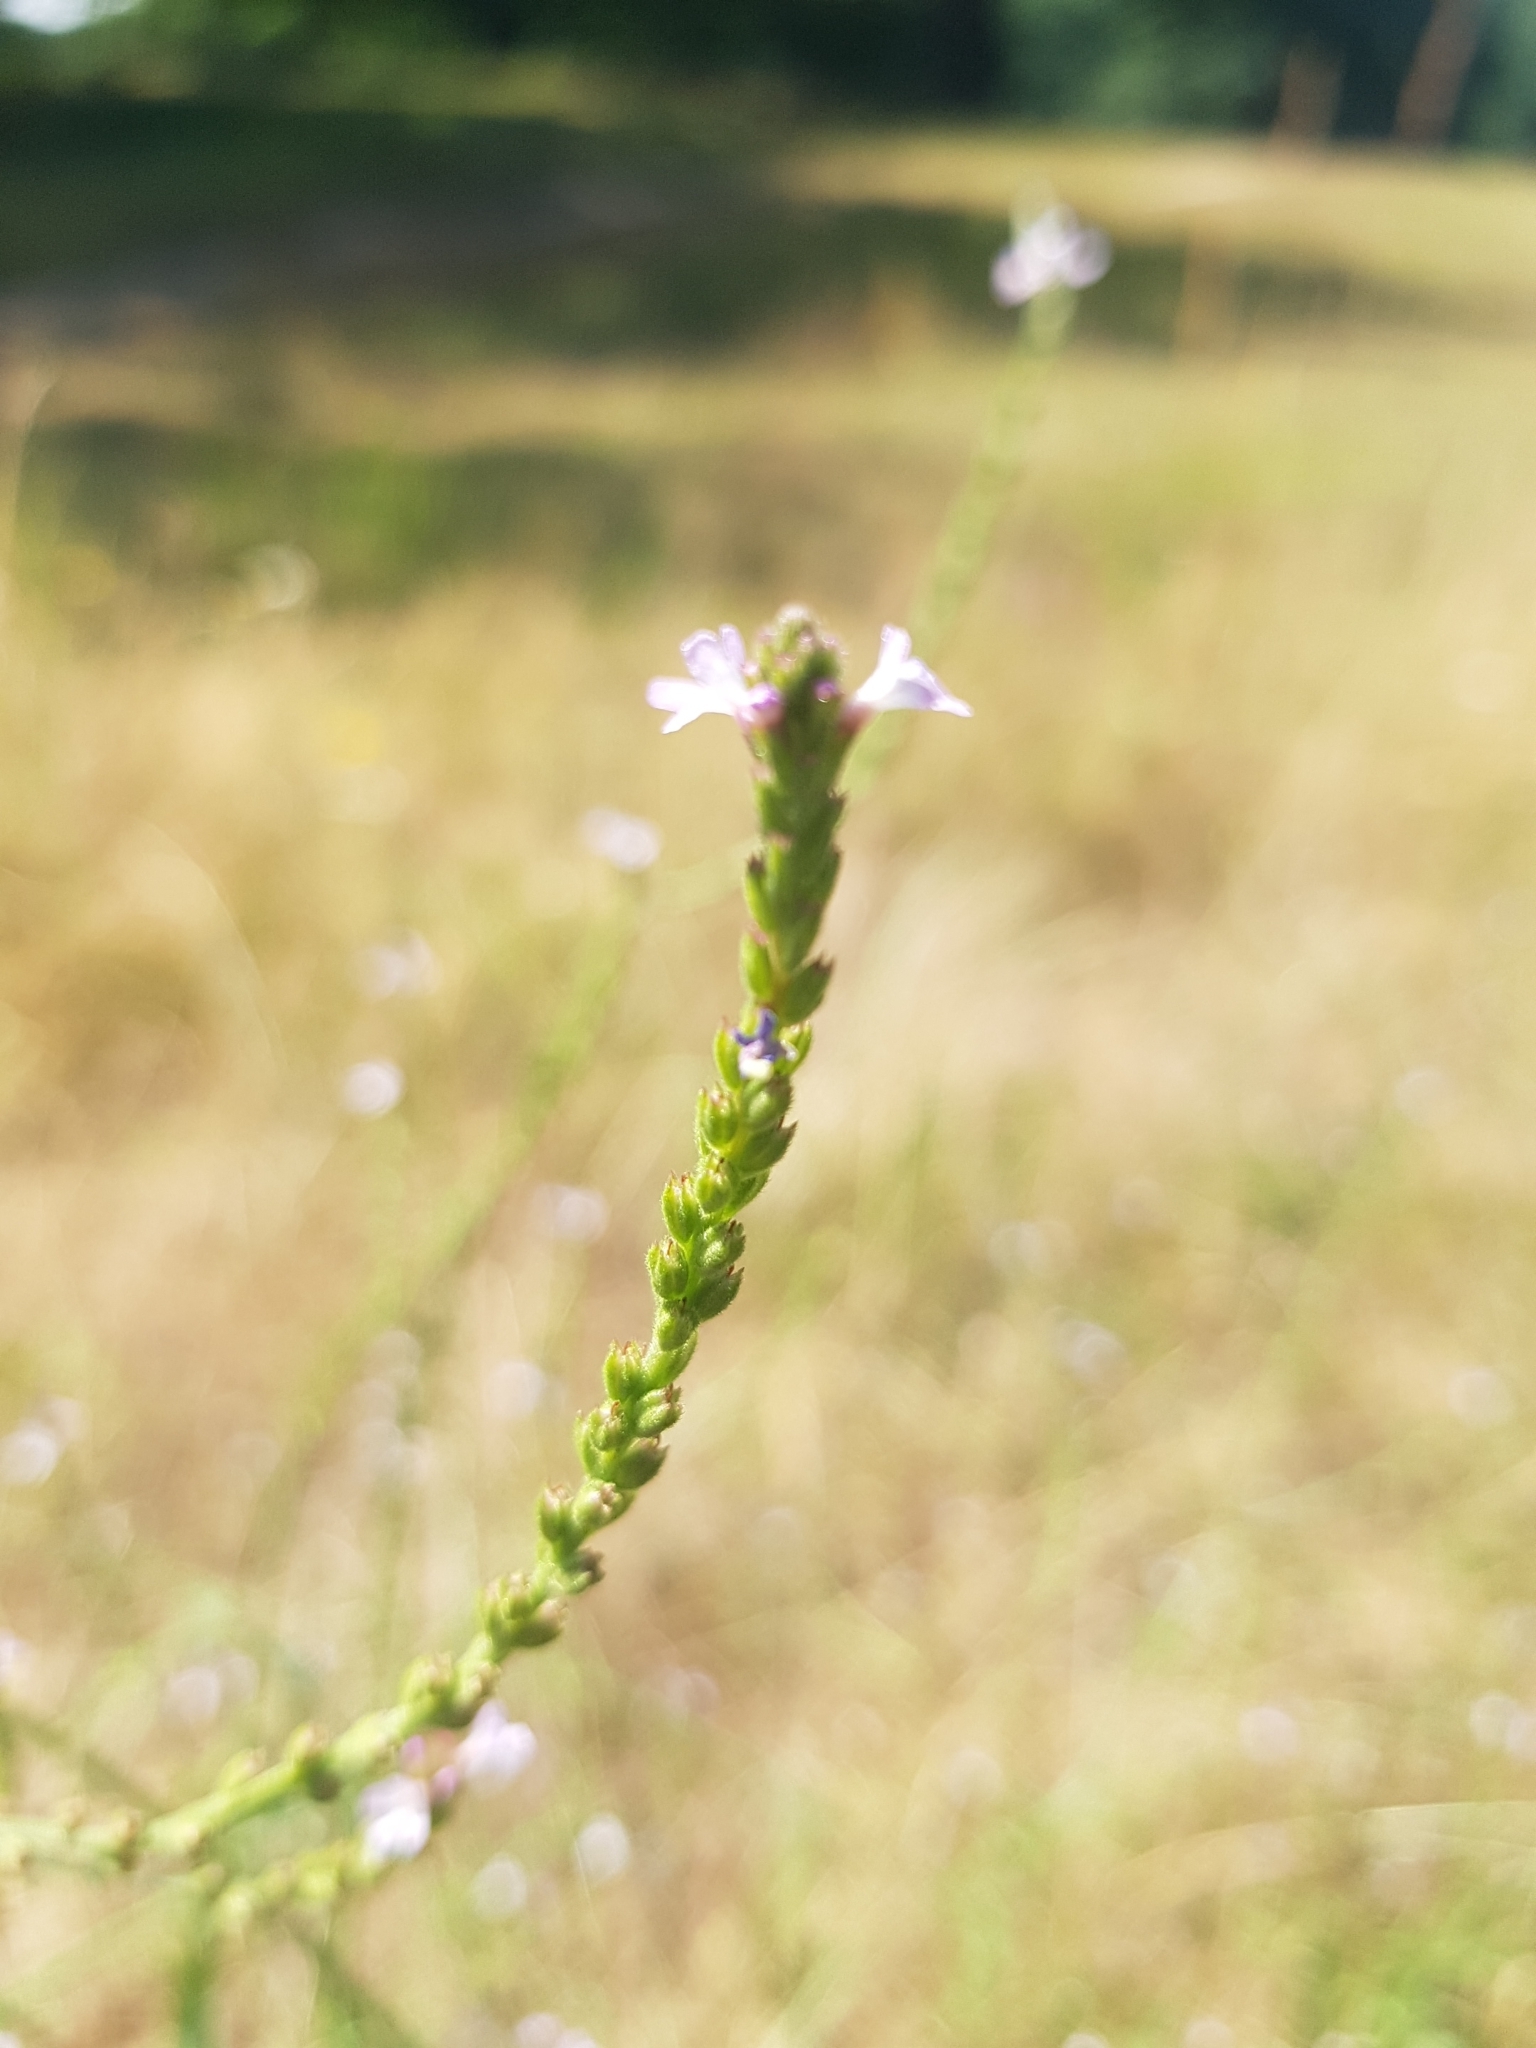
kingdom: Plantae
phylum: Tracheophyta
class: Magnoliopsida
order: Lamiales
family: Verbenaceae
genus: Verbena
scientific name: Verbena officinalis
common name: Vervain
